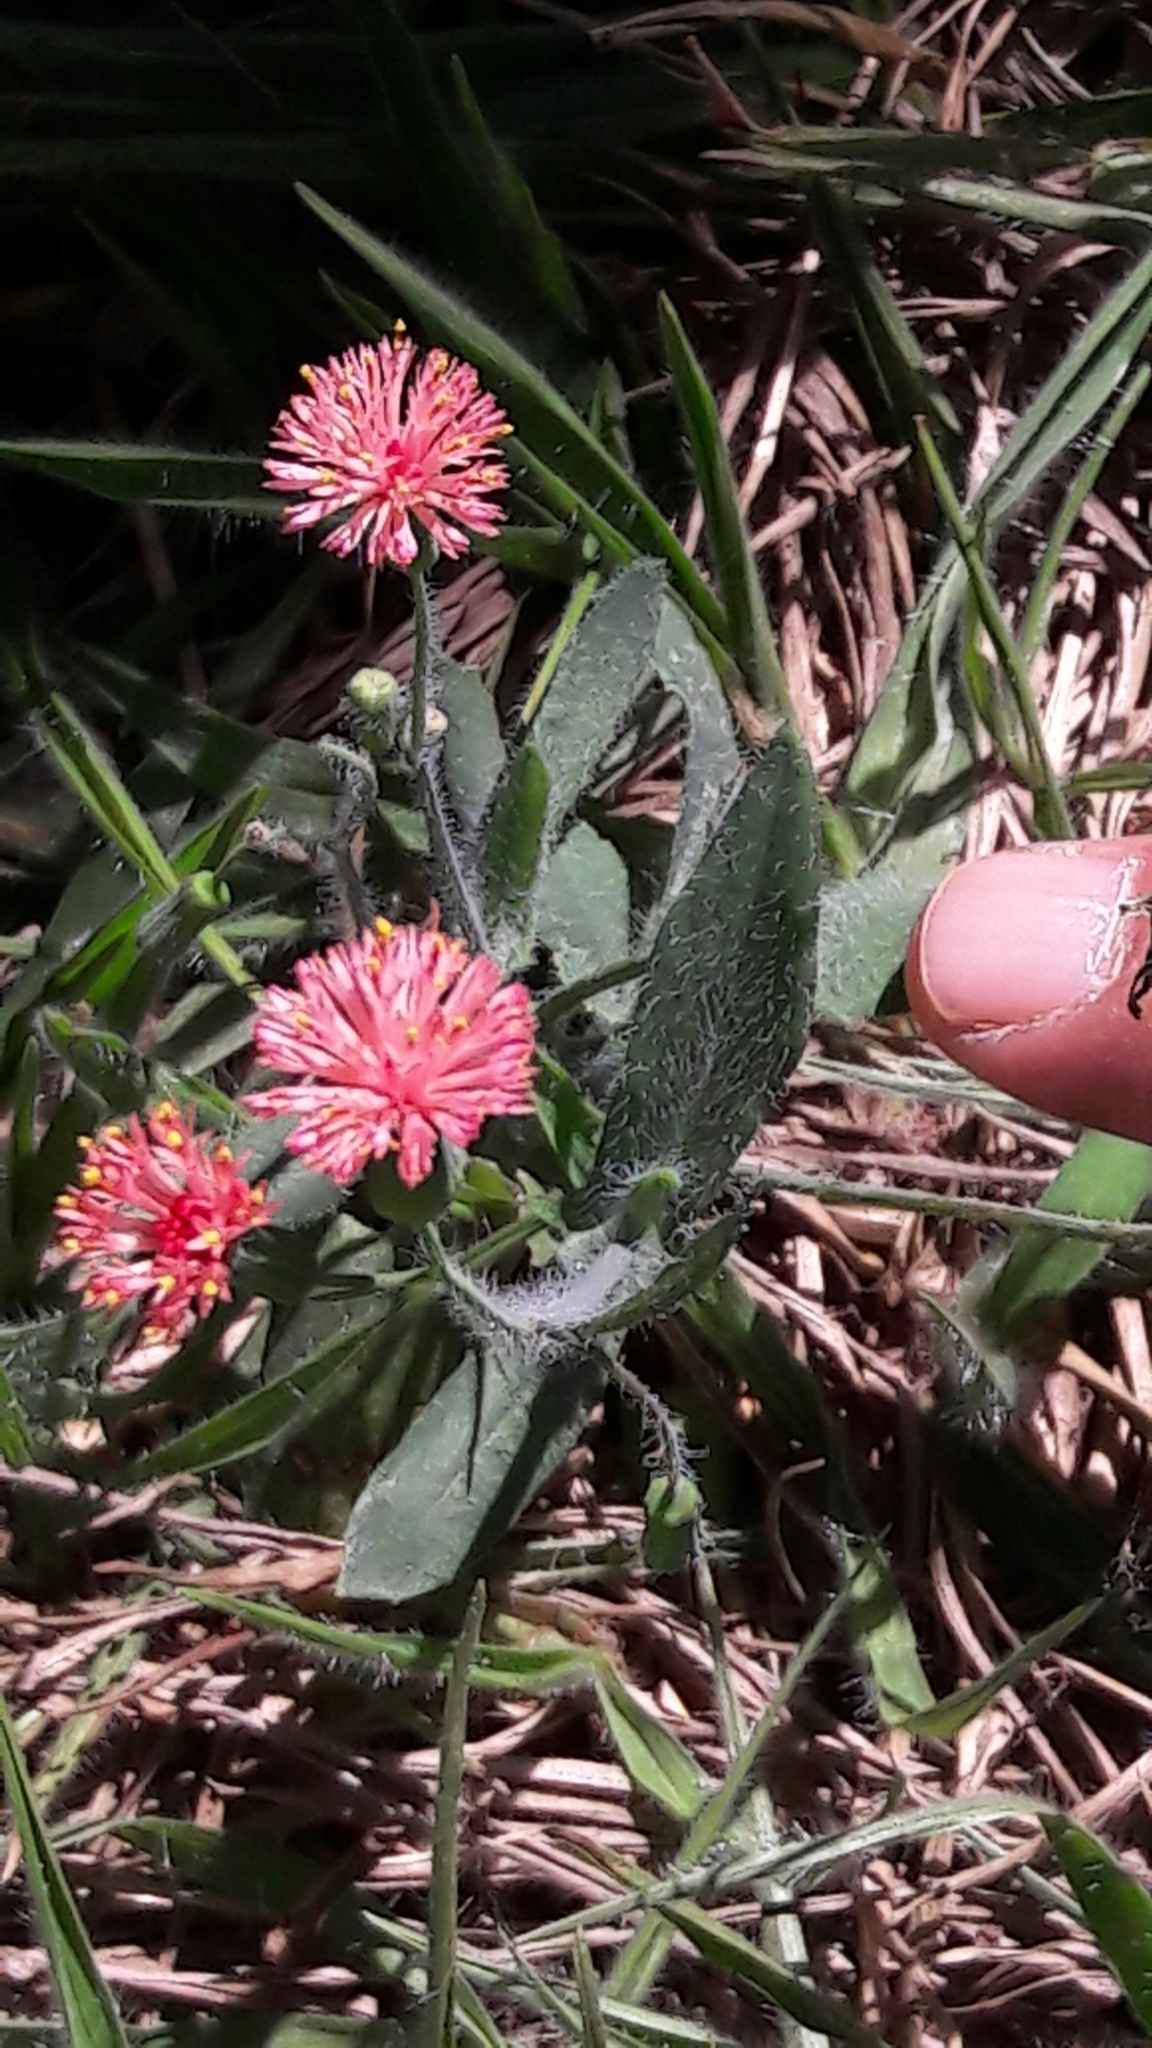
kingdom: Plantae
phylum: Tracheophyta
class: Magnoliopsida
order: Asterales
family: Asteraceae
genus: Emilia
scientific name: Emilia fosbergii
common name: Florida tasselflower
